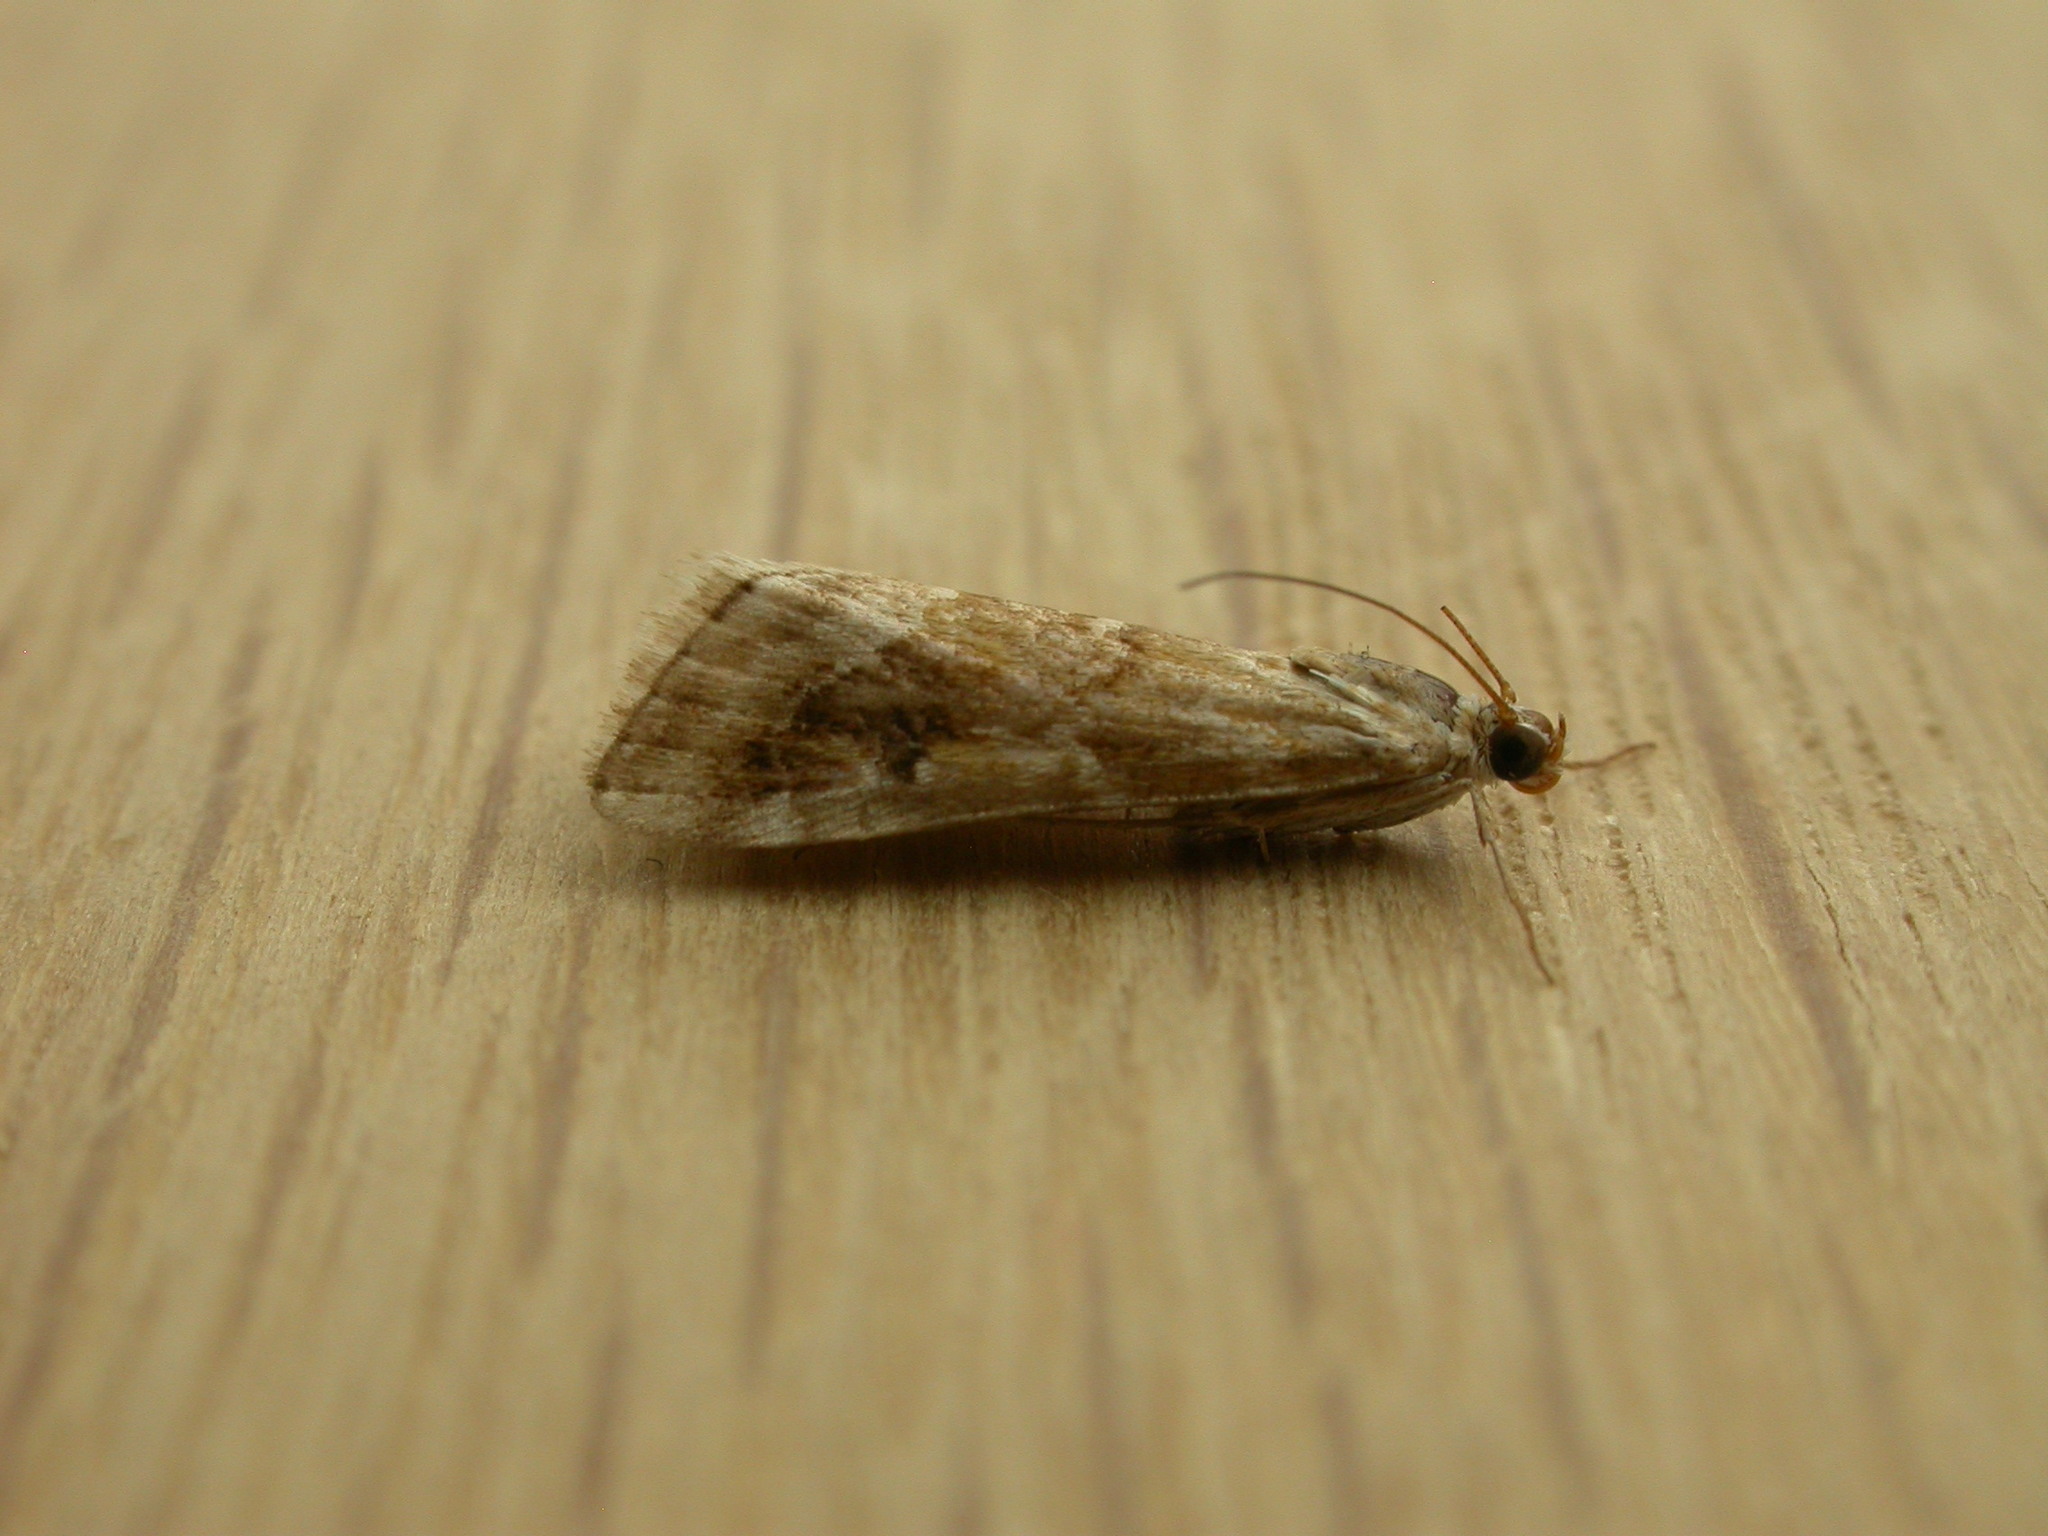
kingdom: Animalia
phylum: Arthropoda
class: Insecta
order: Lepidoptera
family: Crambidae
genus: Hellula
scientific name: Hellula hydralis
